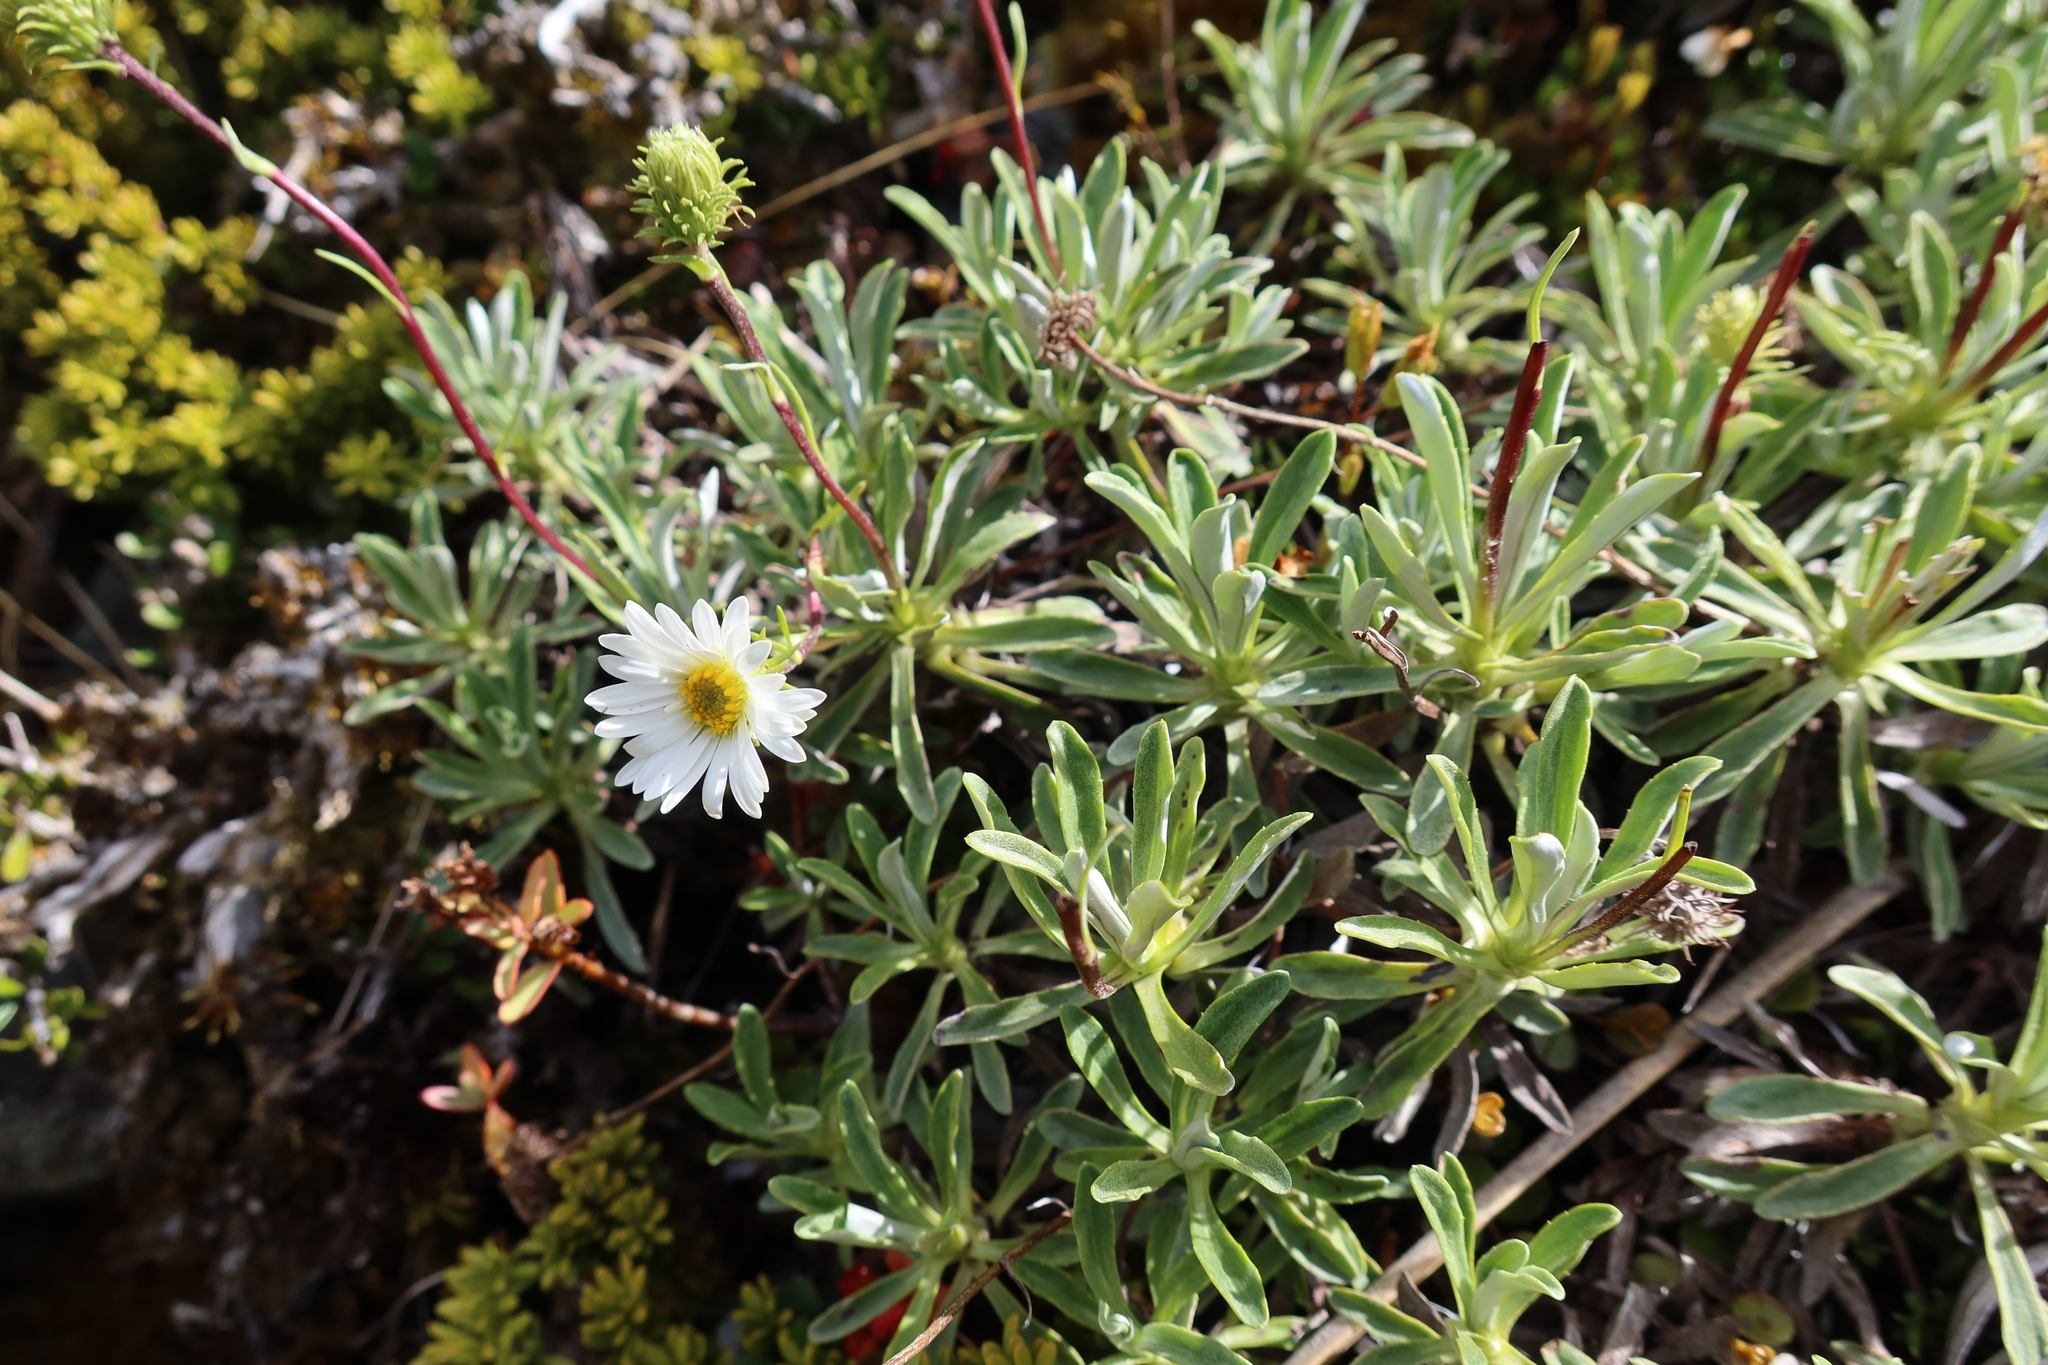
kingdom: Plantae
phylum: Tracheophyta
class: Magnoliopsida
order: Asterales
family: Asteraceae
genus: Celmisia
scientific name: Celmisia angustifolia
